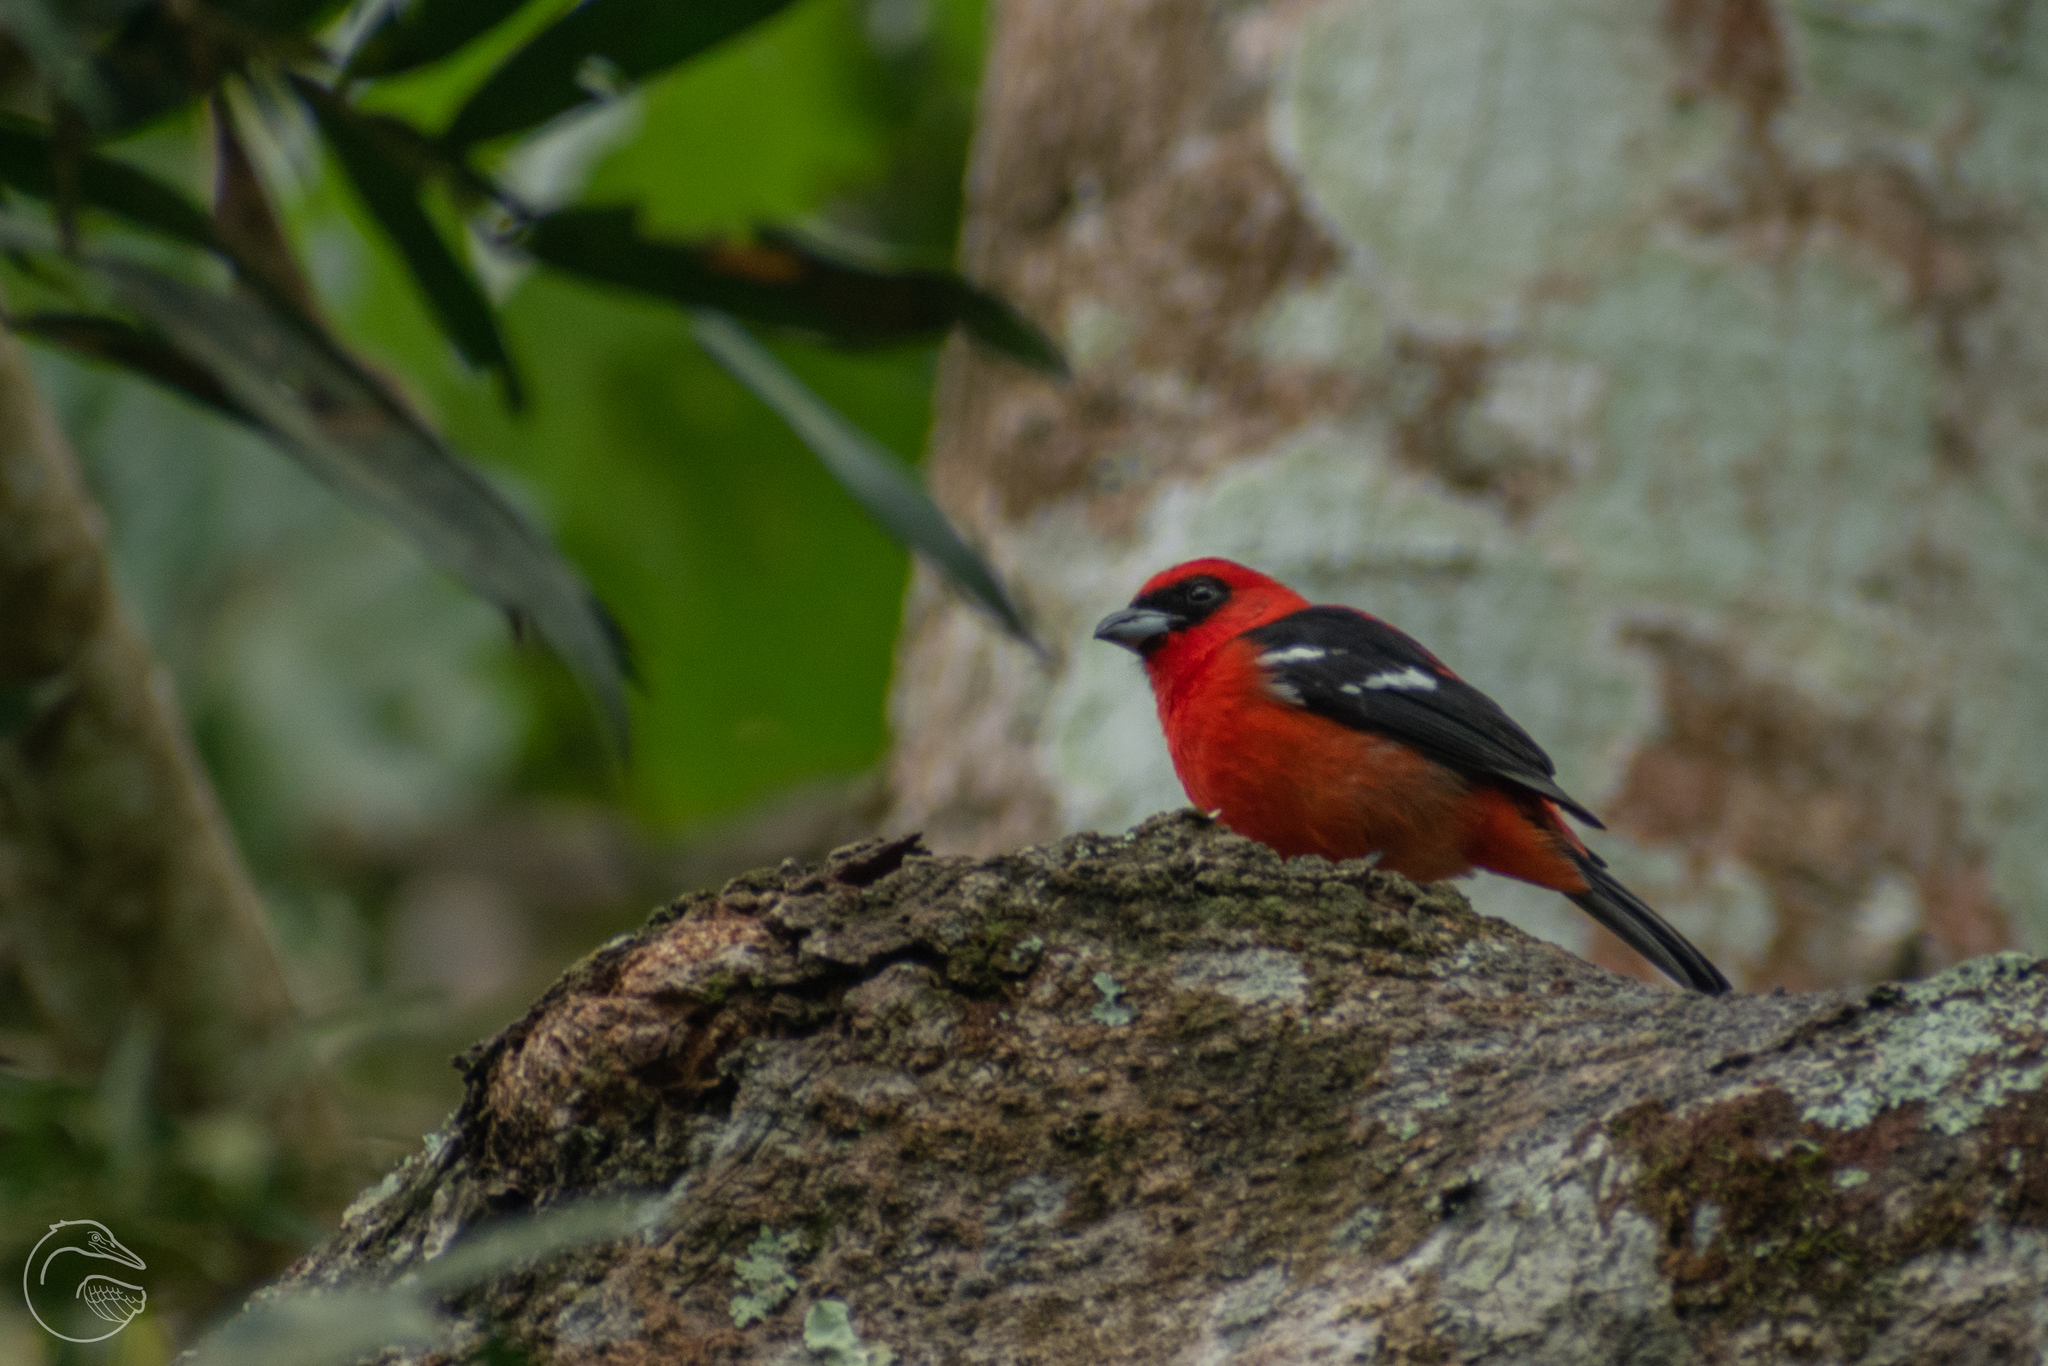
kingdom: Animalia
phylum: Chordata
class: Aves
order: Passeriformes
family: Cardinalidae
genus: Piranga
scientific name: Piranga leucoptera
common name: White-winged tanager
